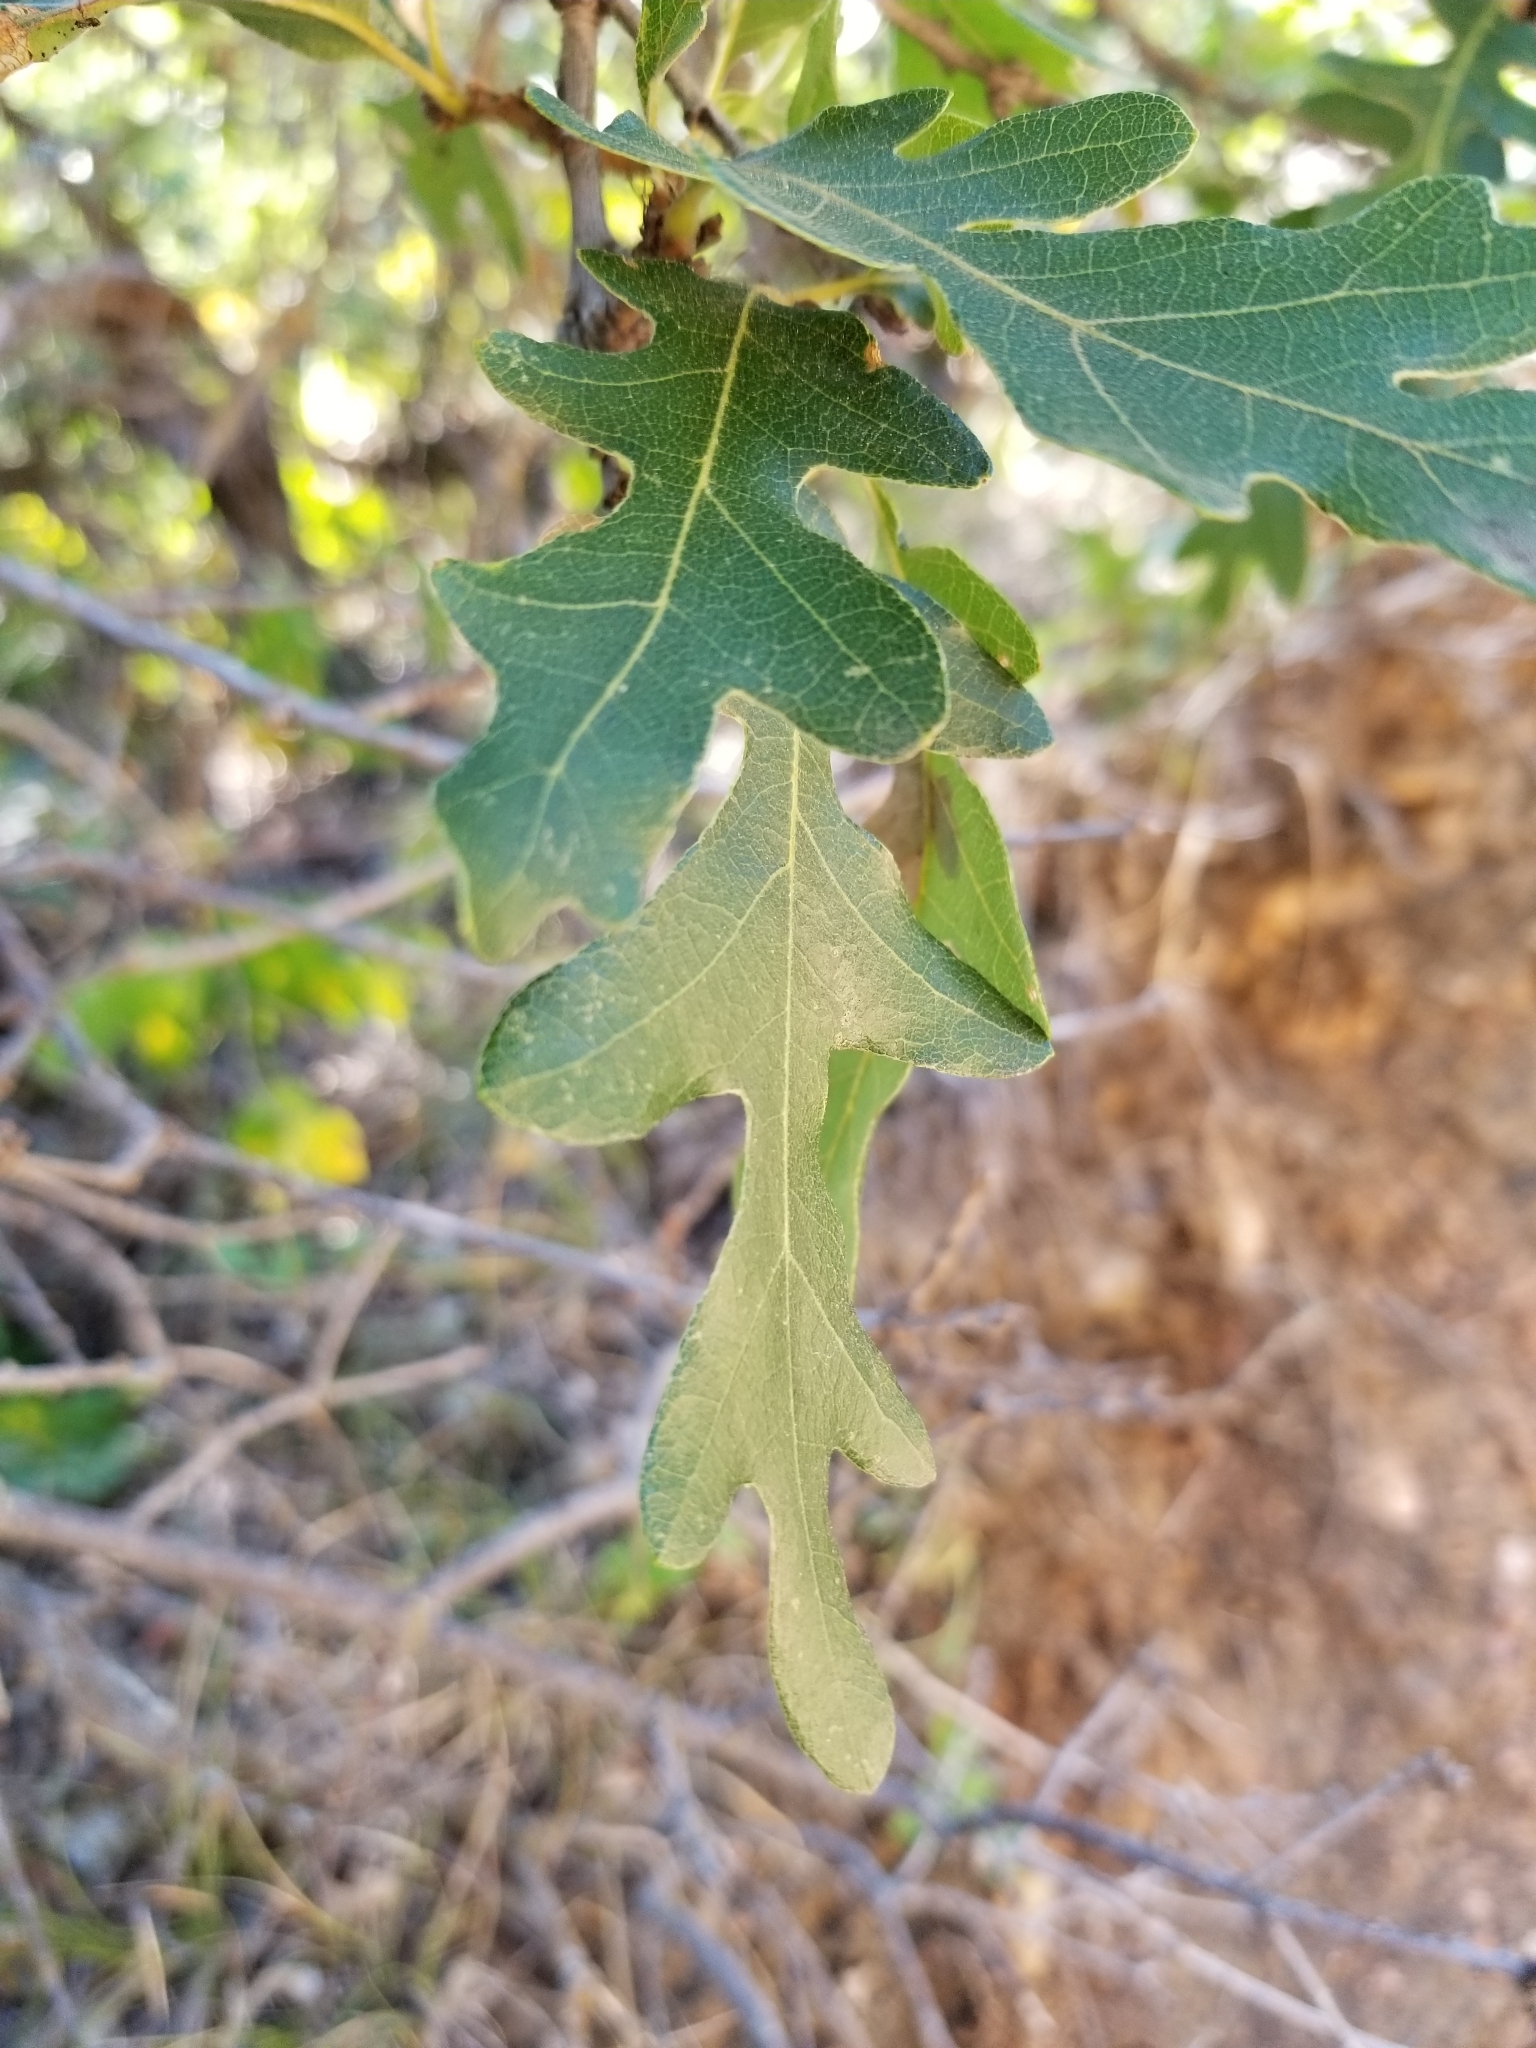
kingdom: Plantae
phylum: Tracheophyta
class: Magnoliopsida
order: Fagales
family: Fagaceae
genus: Quercus
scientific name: Quercus gambelii
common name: Gambel oak
